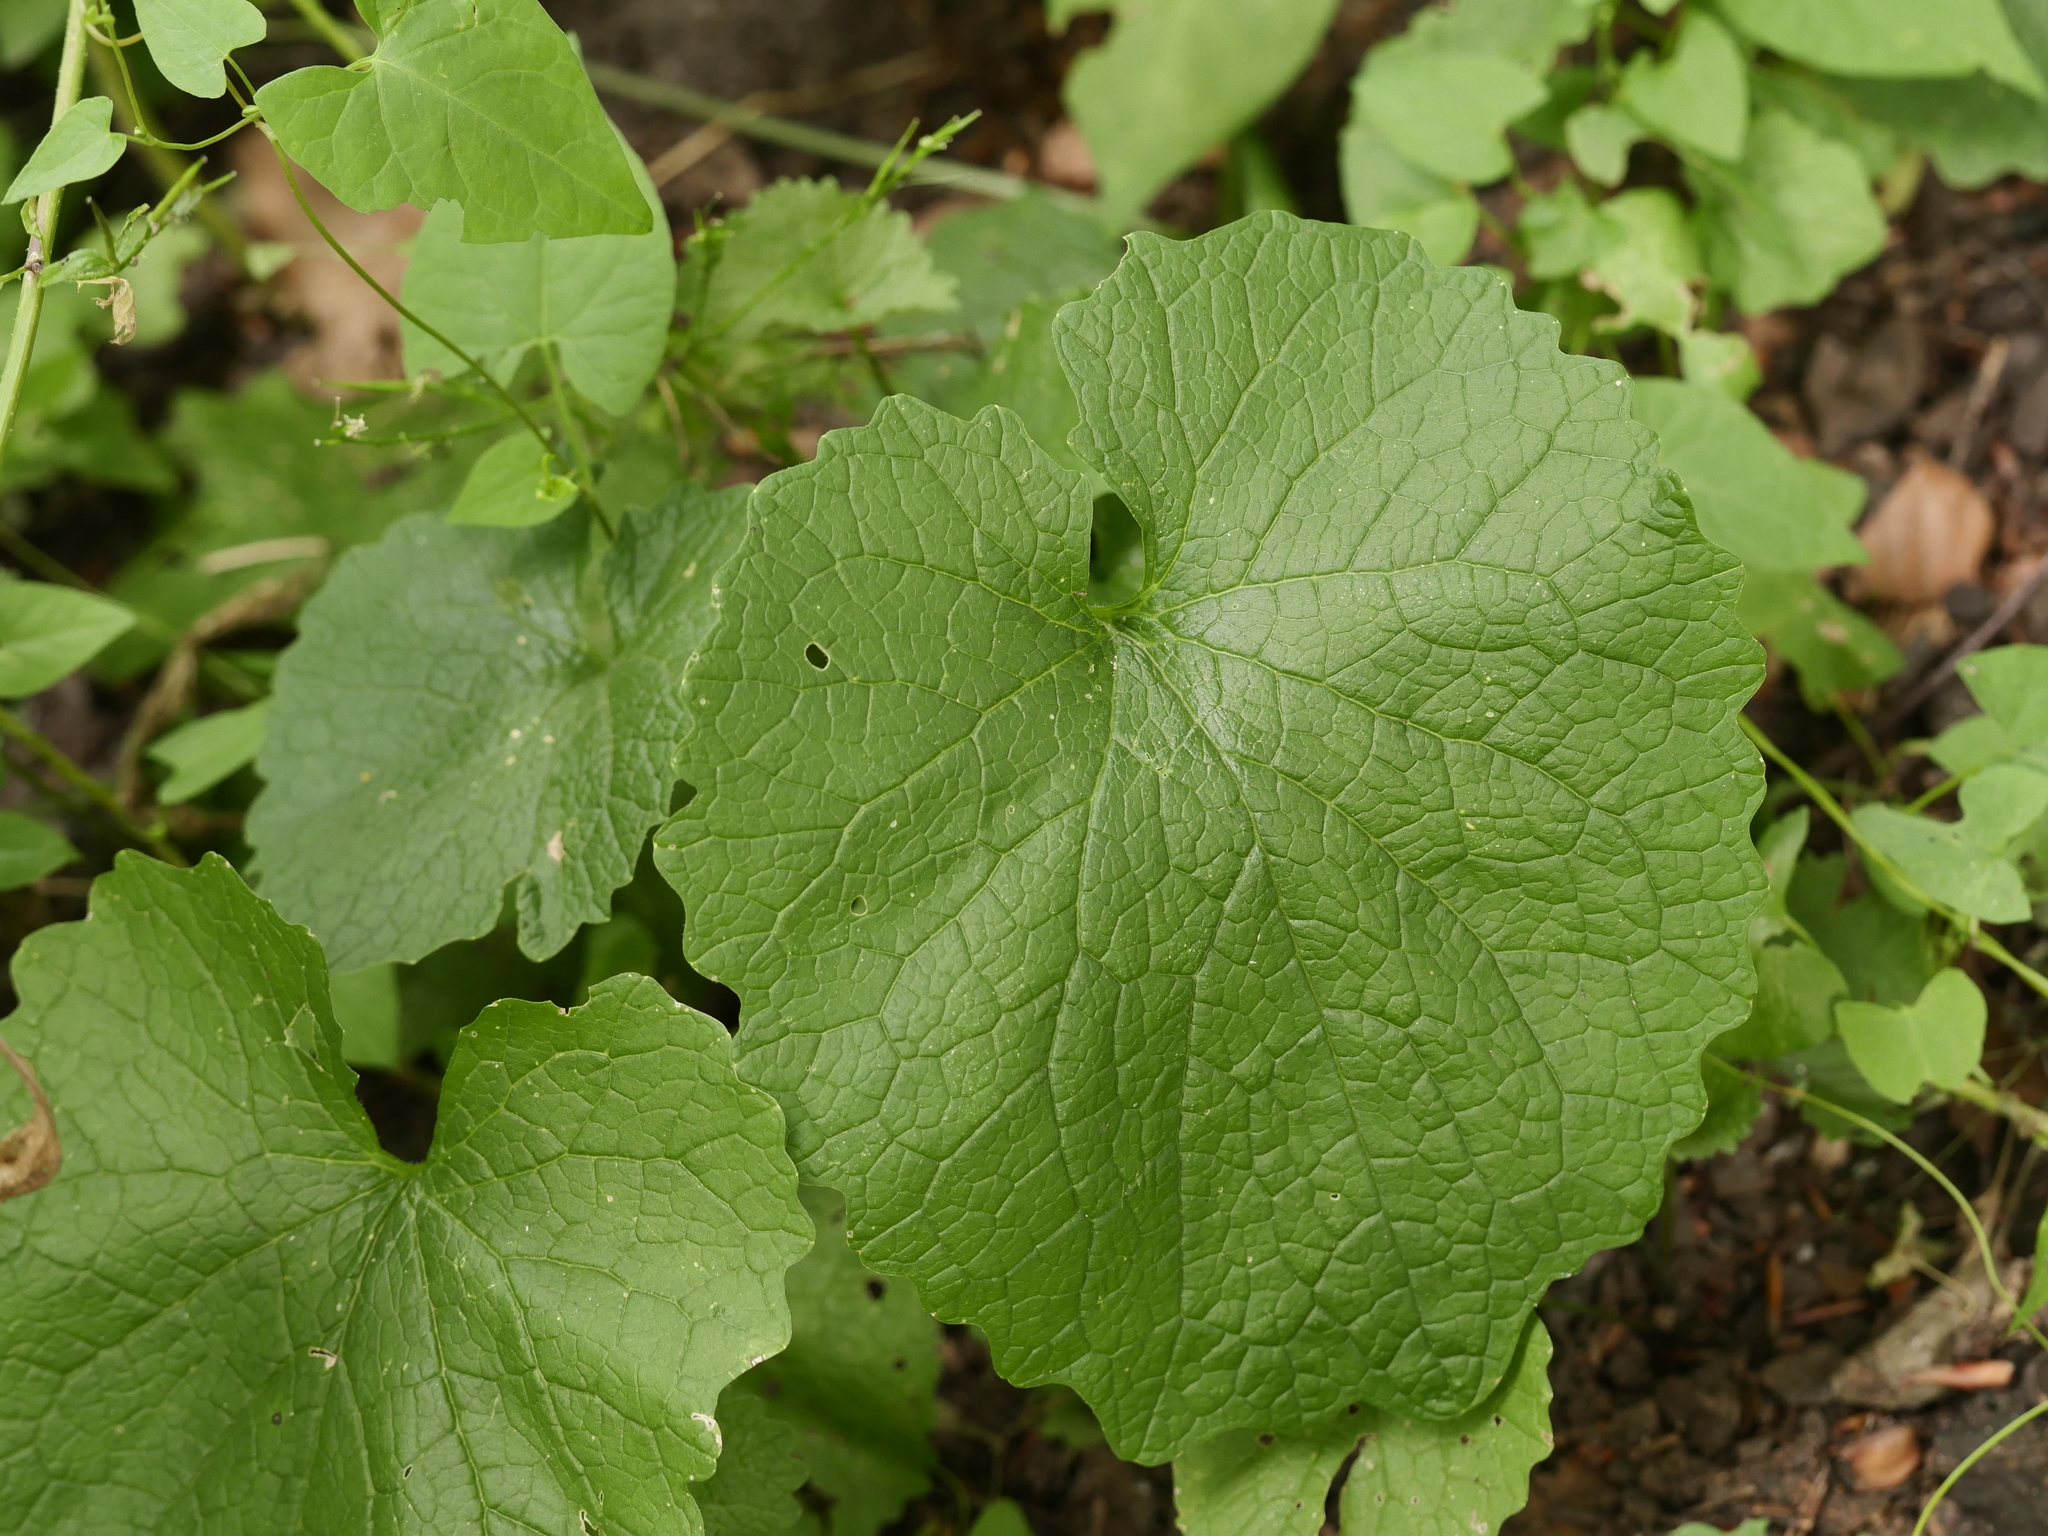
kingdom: Plantae
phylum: Tracheophyta
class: Magnoliopsida
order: Brassicales
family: Brassicaceae
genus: Alliaria
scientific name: Alliaria petiolata
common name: Garlic mustard
